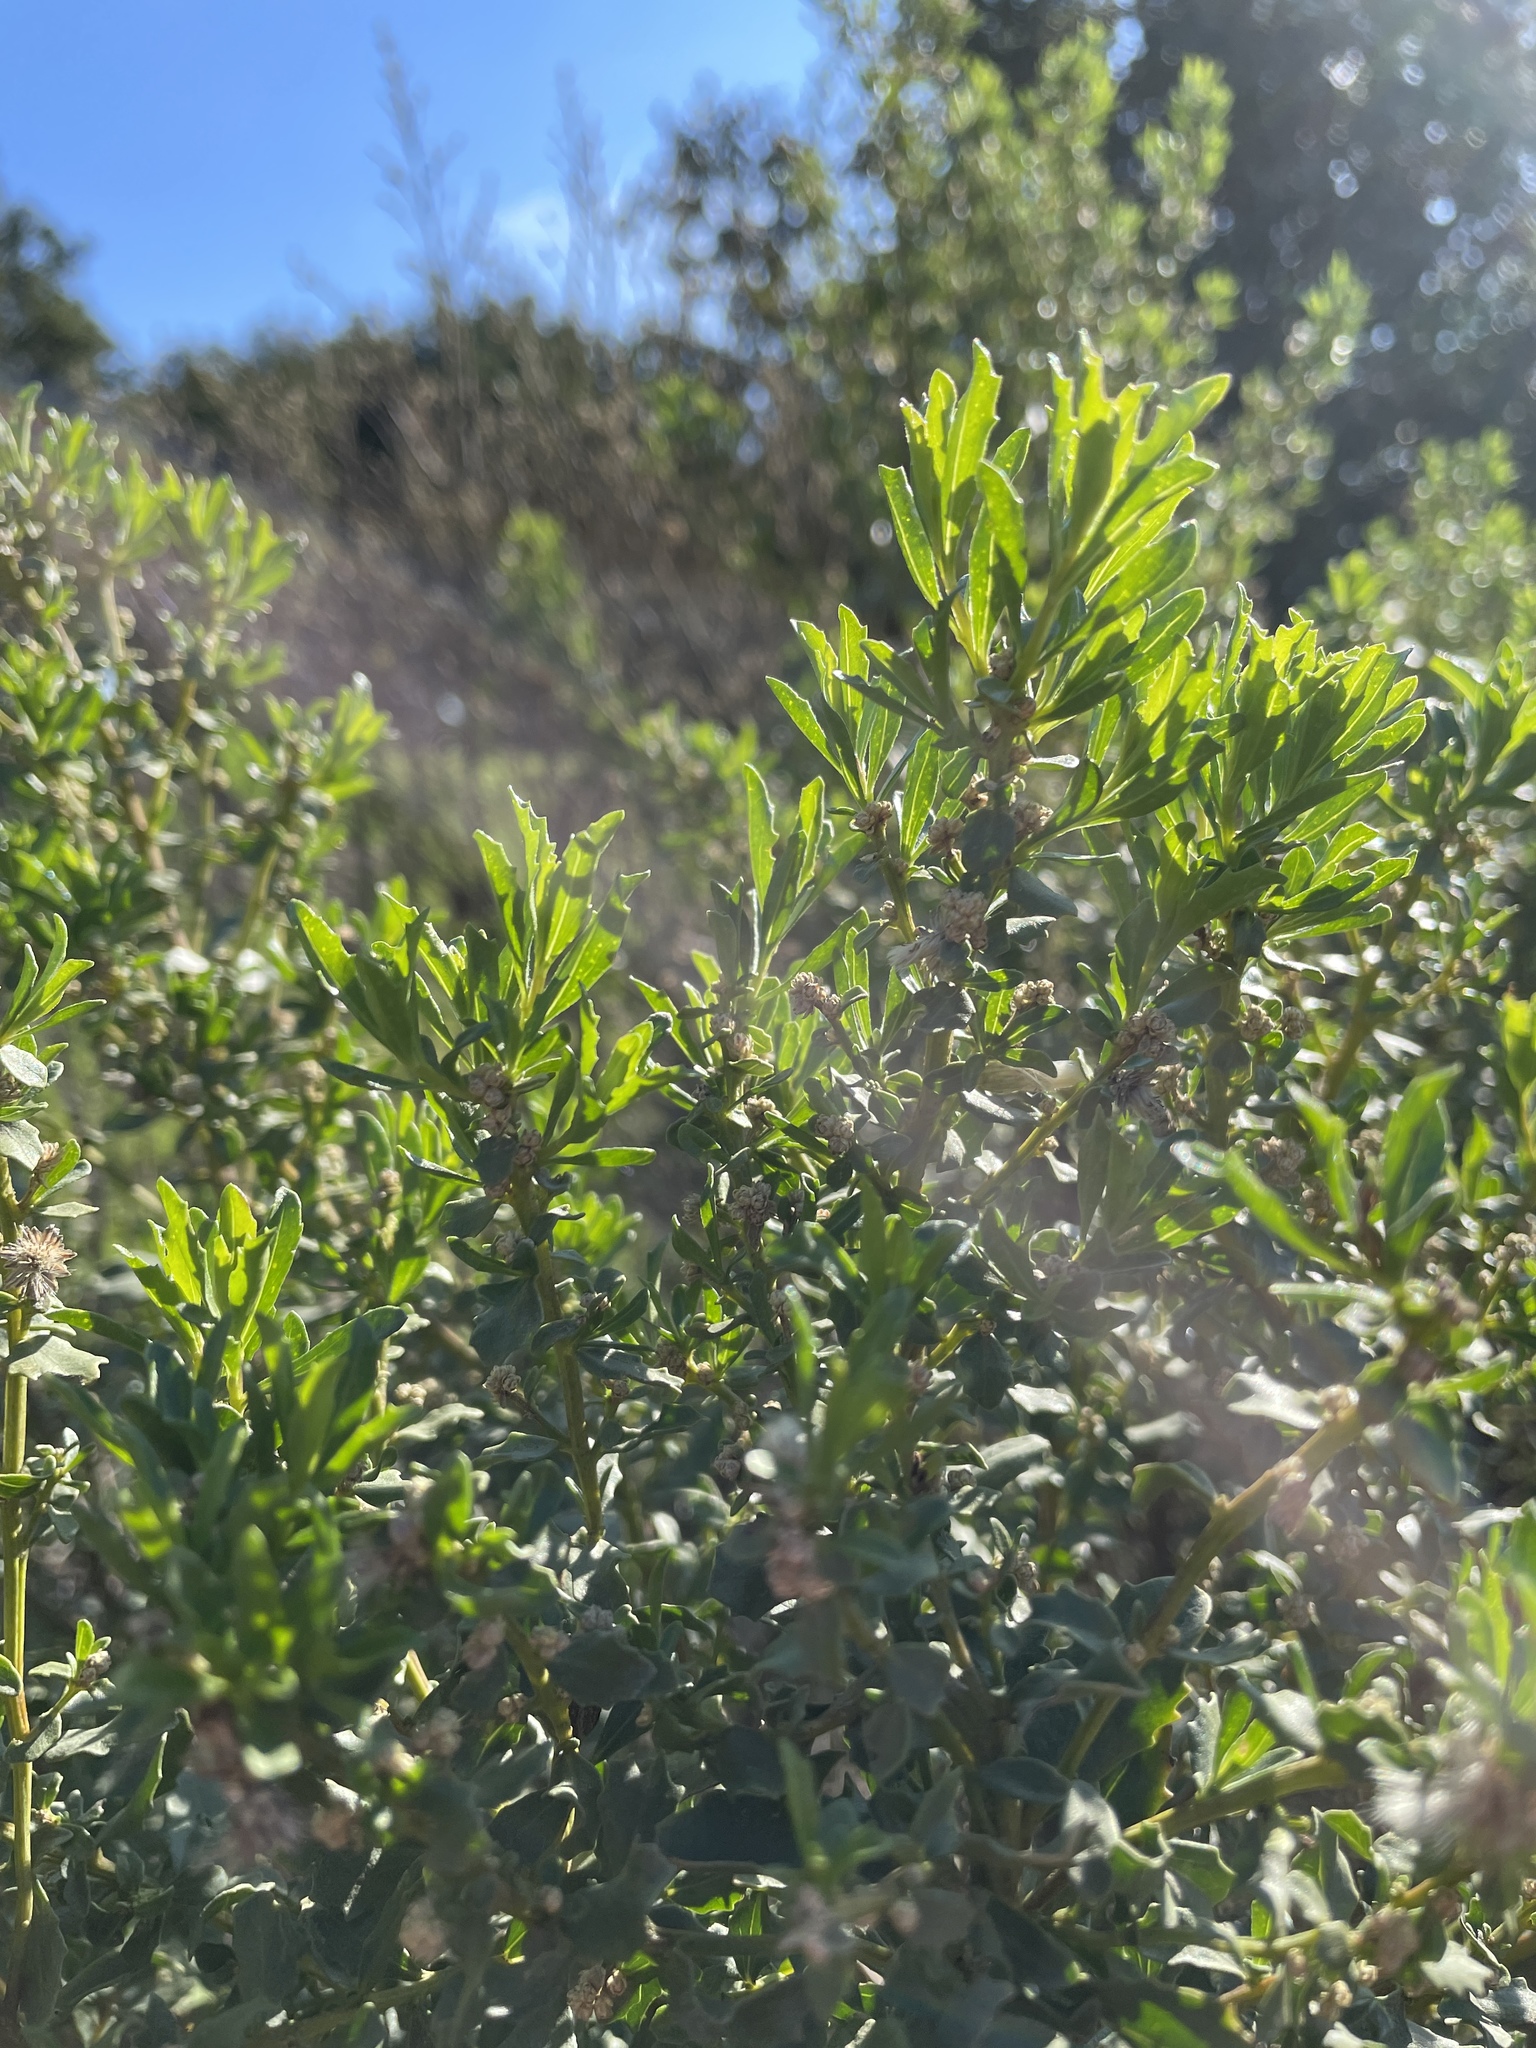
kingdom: Plantae
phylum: Tracheophyta
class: Magnoliopsida
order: Asterales
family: Asteraceae
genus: Baccharis
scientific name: Baccharis pilularis
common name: Coyotebrush
